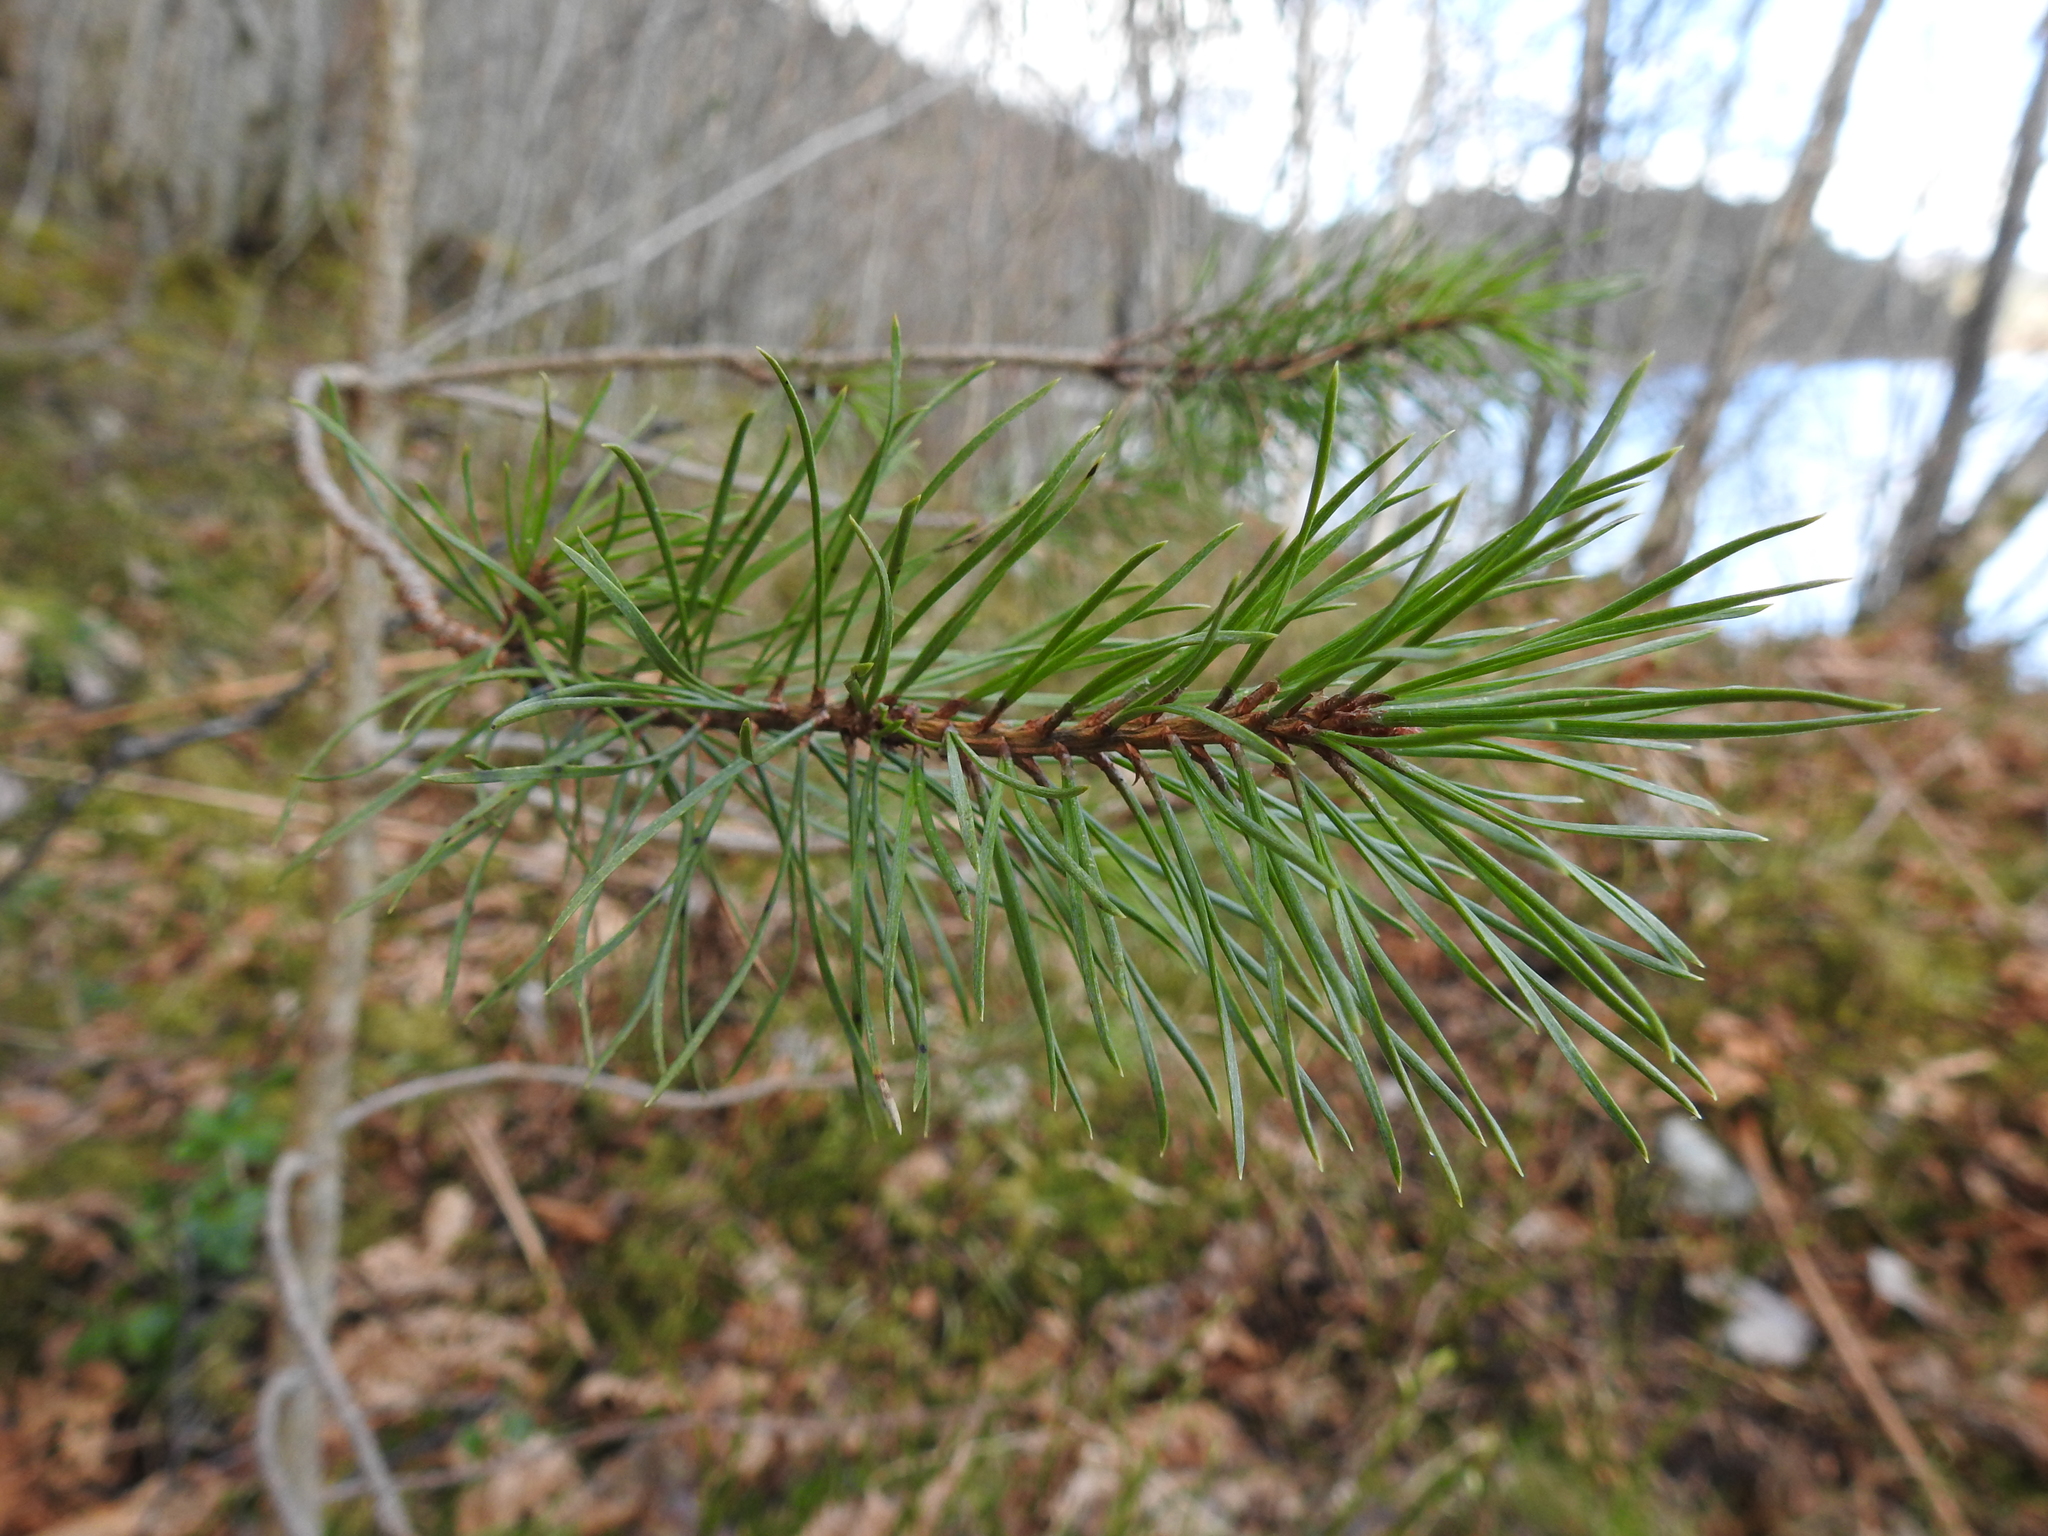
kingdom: Plantae
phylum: Tracheophyta
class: Pinopsida
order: Pinales
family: Pinaceae
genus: Pinus
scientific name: Pinus sylvestris
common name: Scots pine
